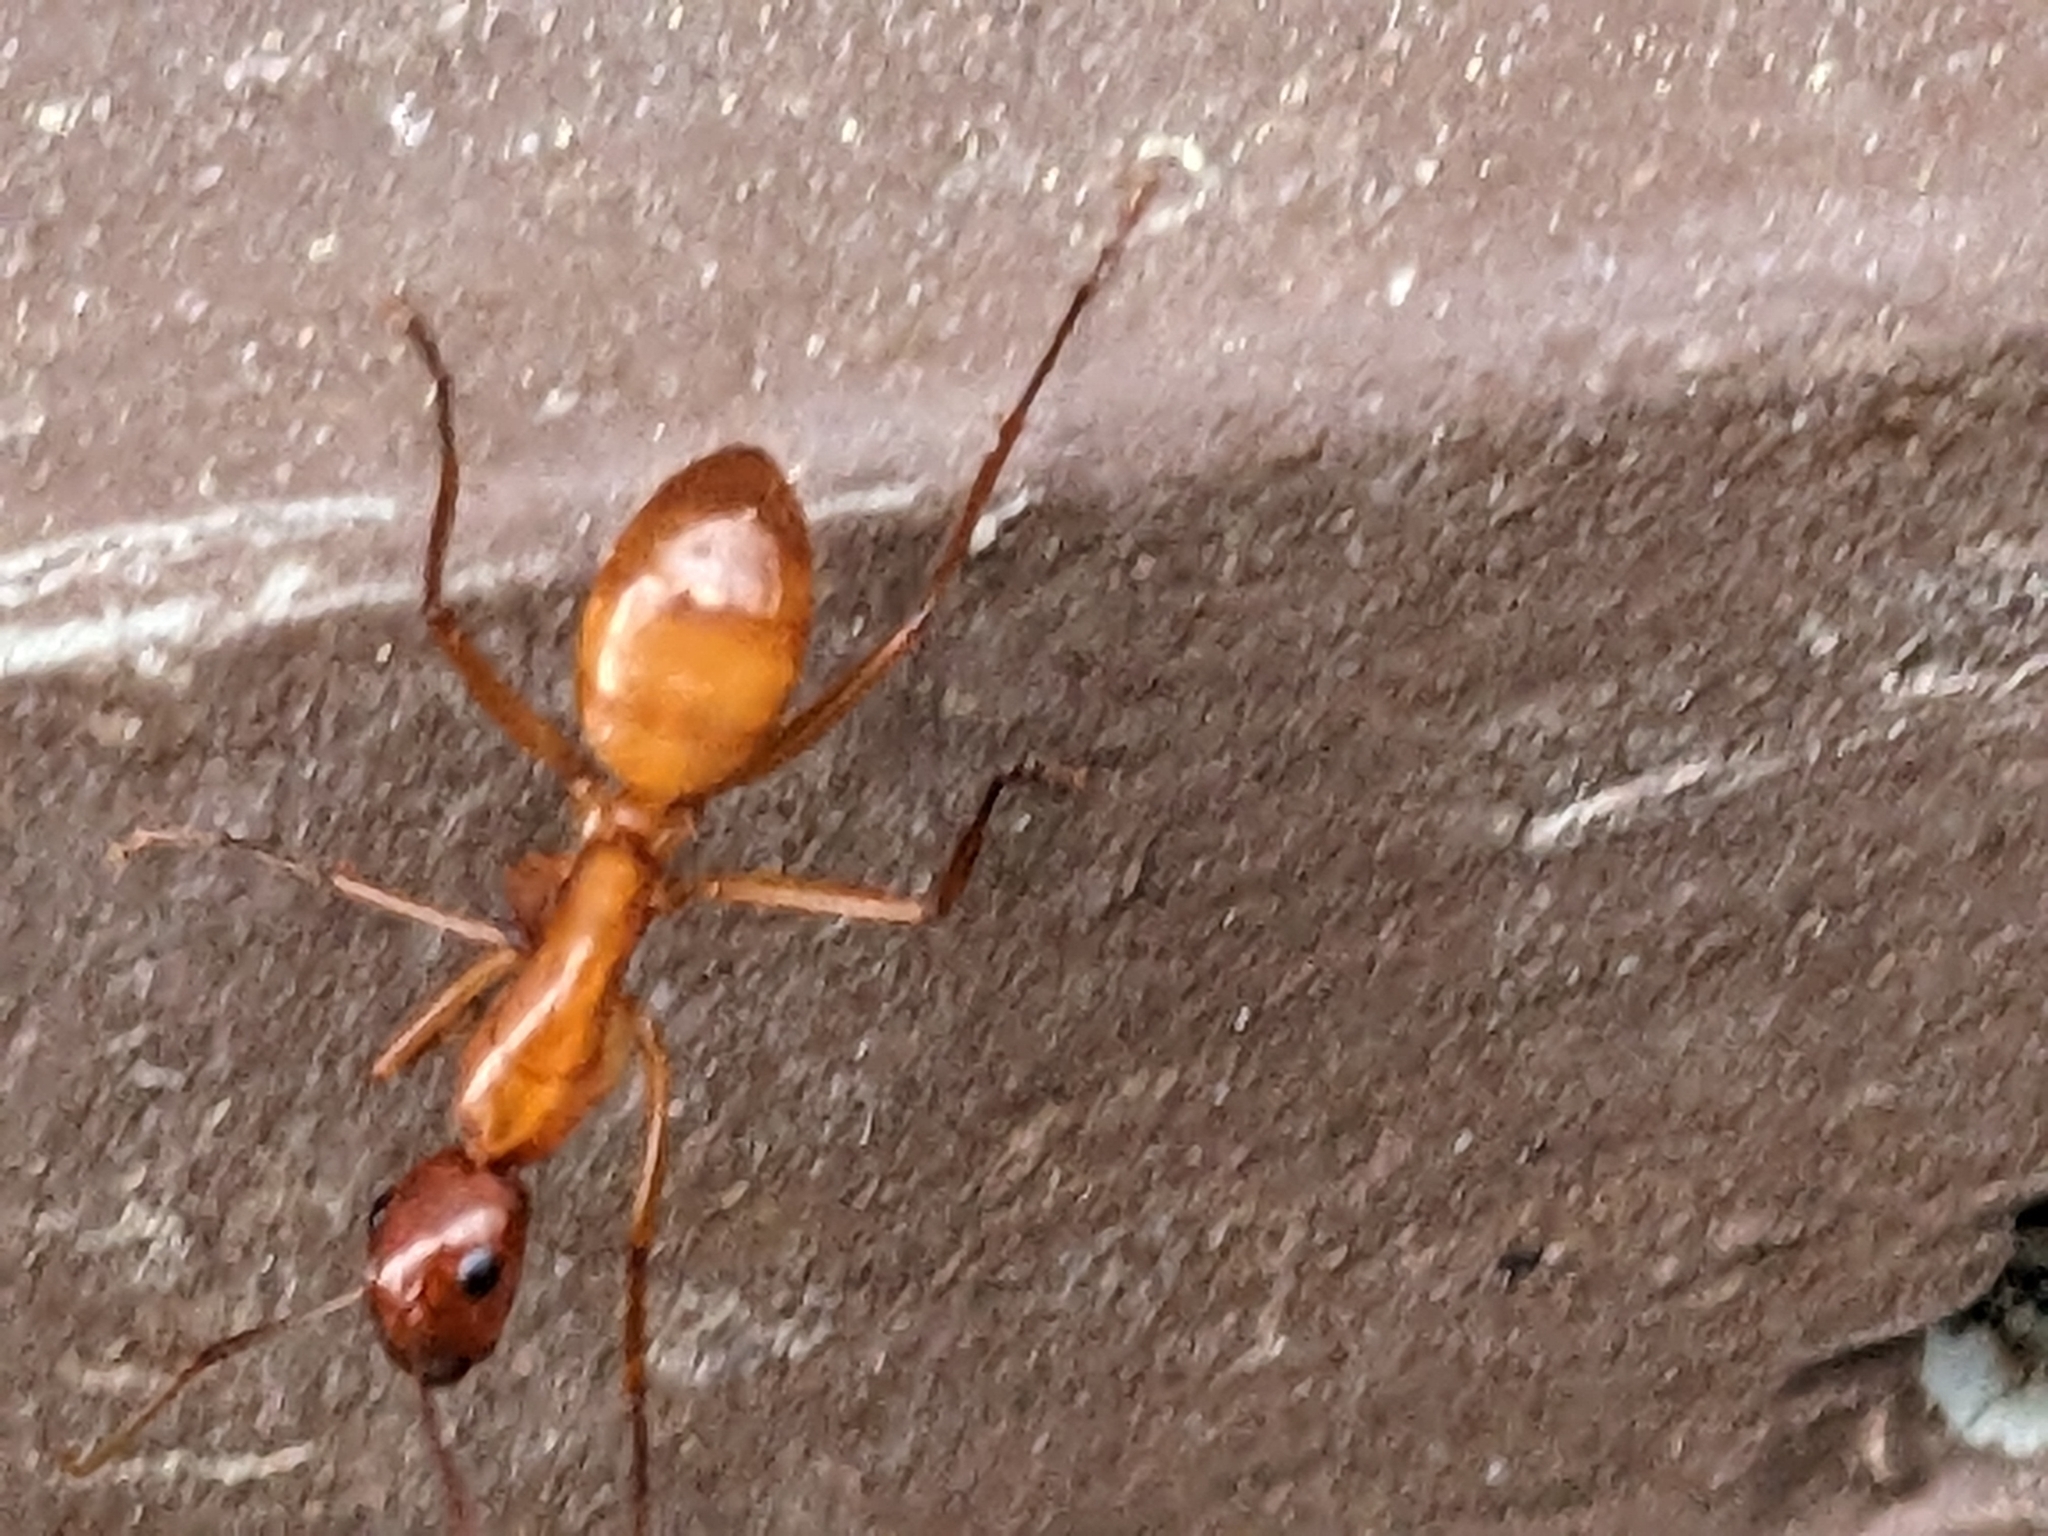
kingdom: Animalia
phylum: Arthropoda
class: Insecta
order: Hymenoptera
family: Formicidae
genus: Camponotus
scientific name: Camponotus castaneus
